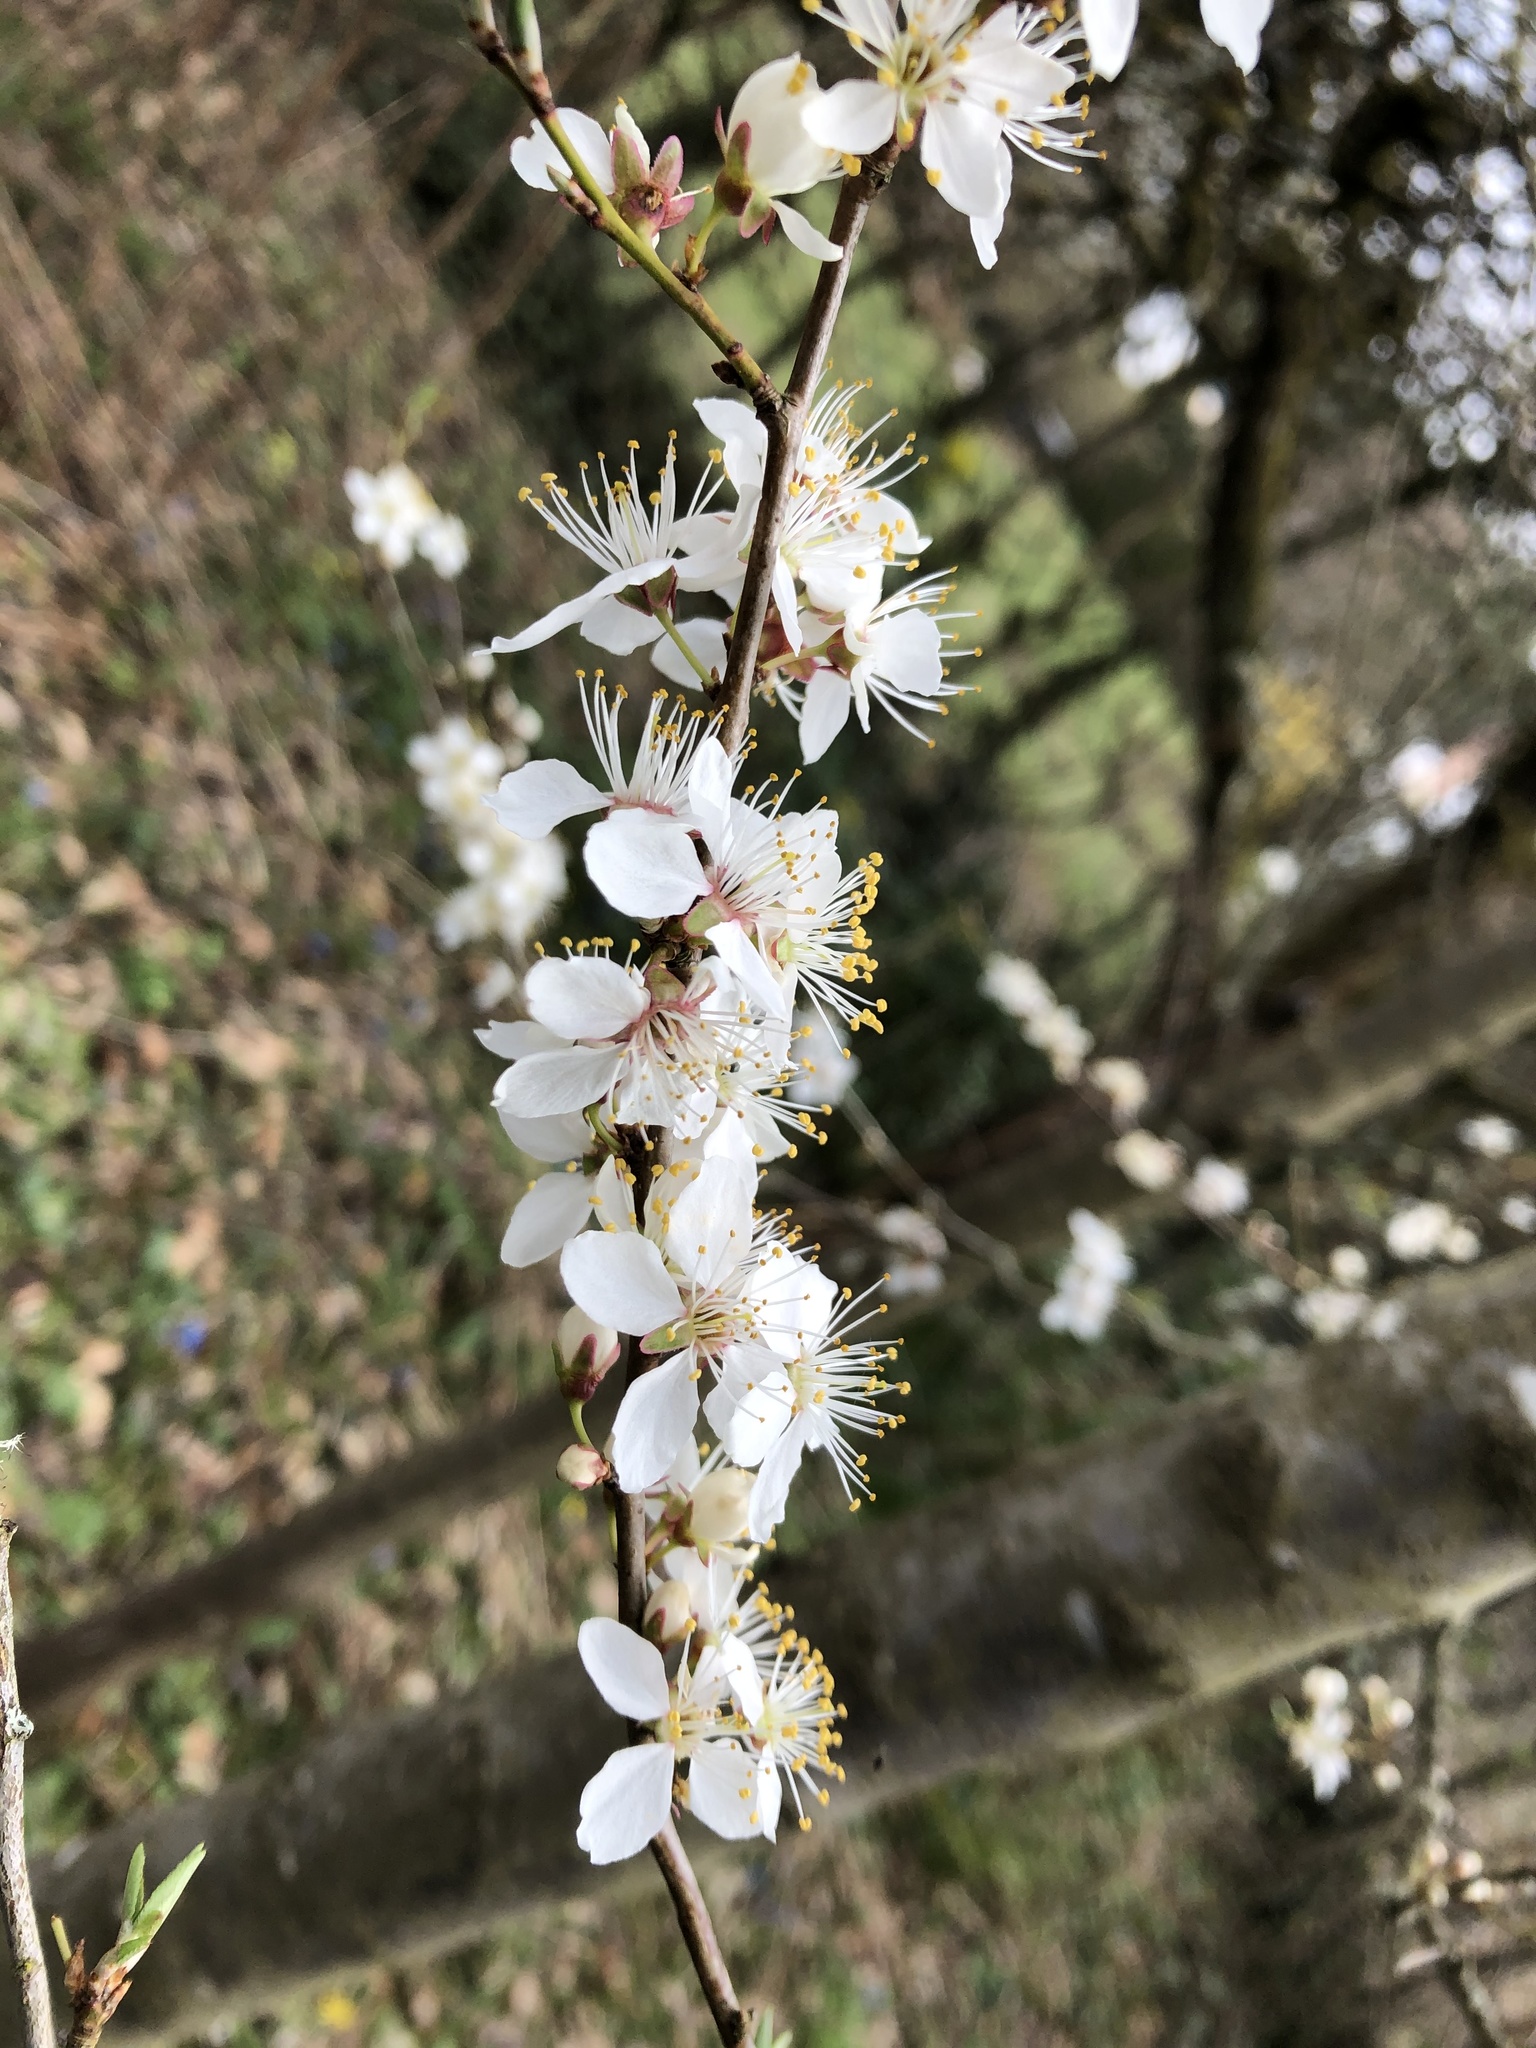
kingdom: Plantae
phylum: Tracheophyta
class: Magnoliopsida
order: Rosales
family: Rosaceae
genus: Prunus
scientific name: Prunus cerasifera
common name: Cherry plum
